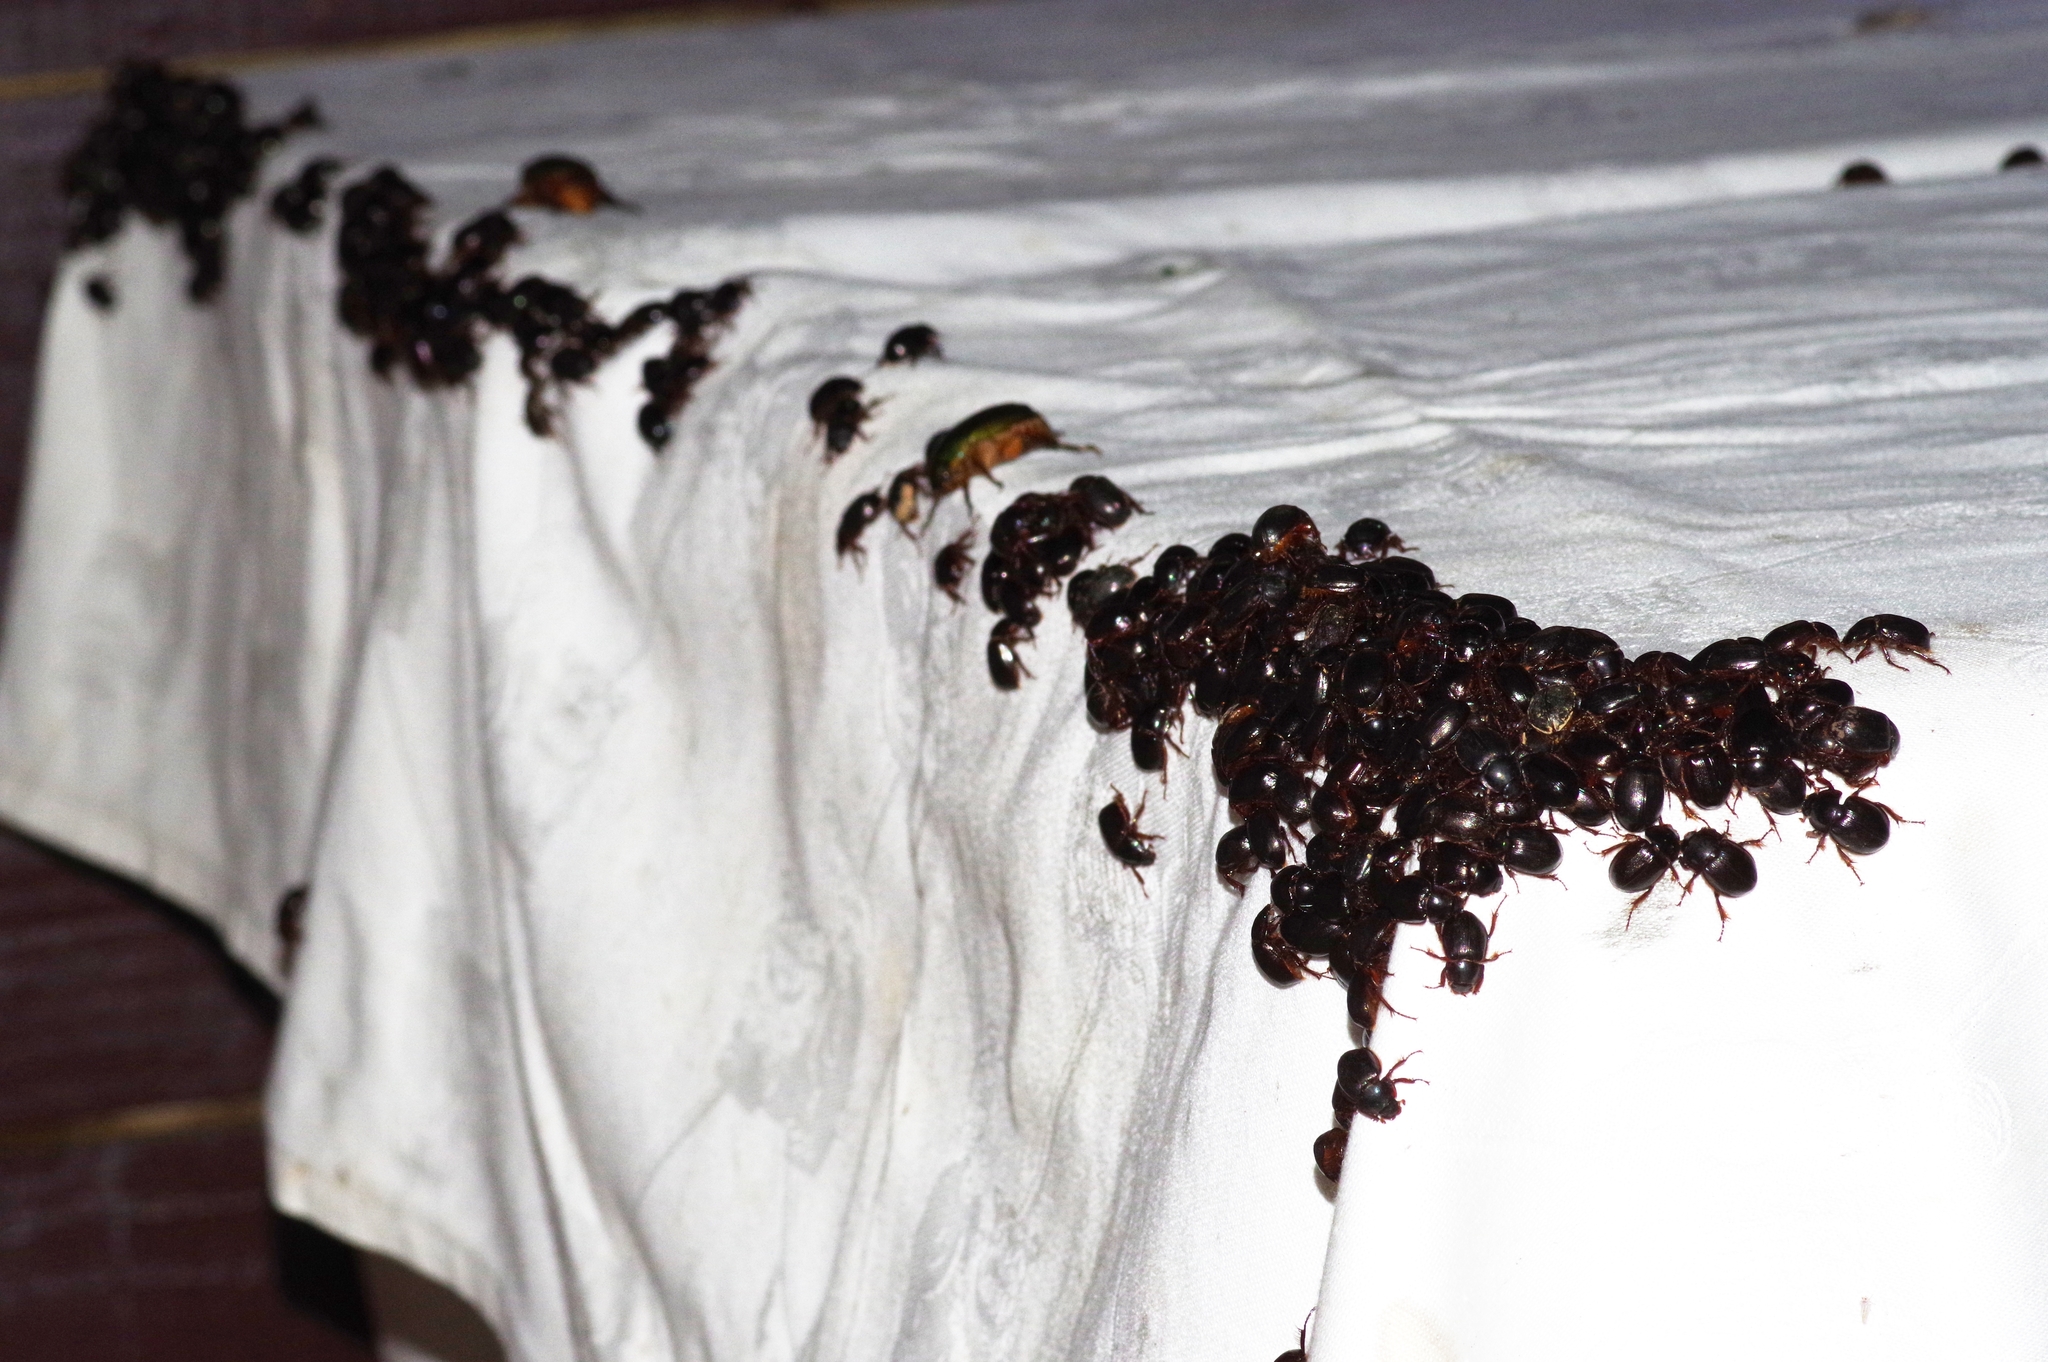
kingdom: Animalia
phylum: Arthropoda
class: Insecta
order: Coleoptera
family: Hybosoridae
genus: Phaeochrous
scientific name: Phaeochrous emarginatus
